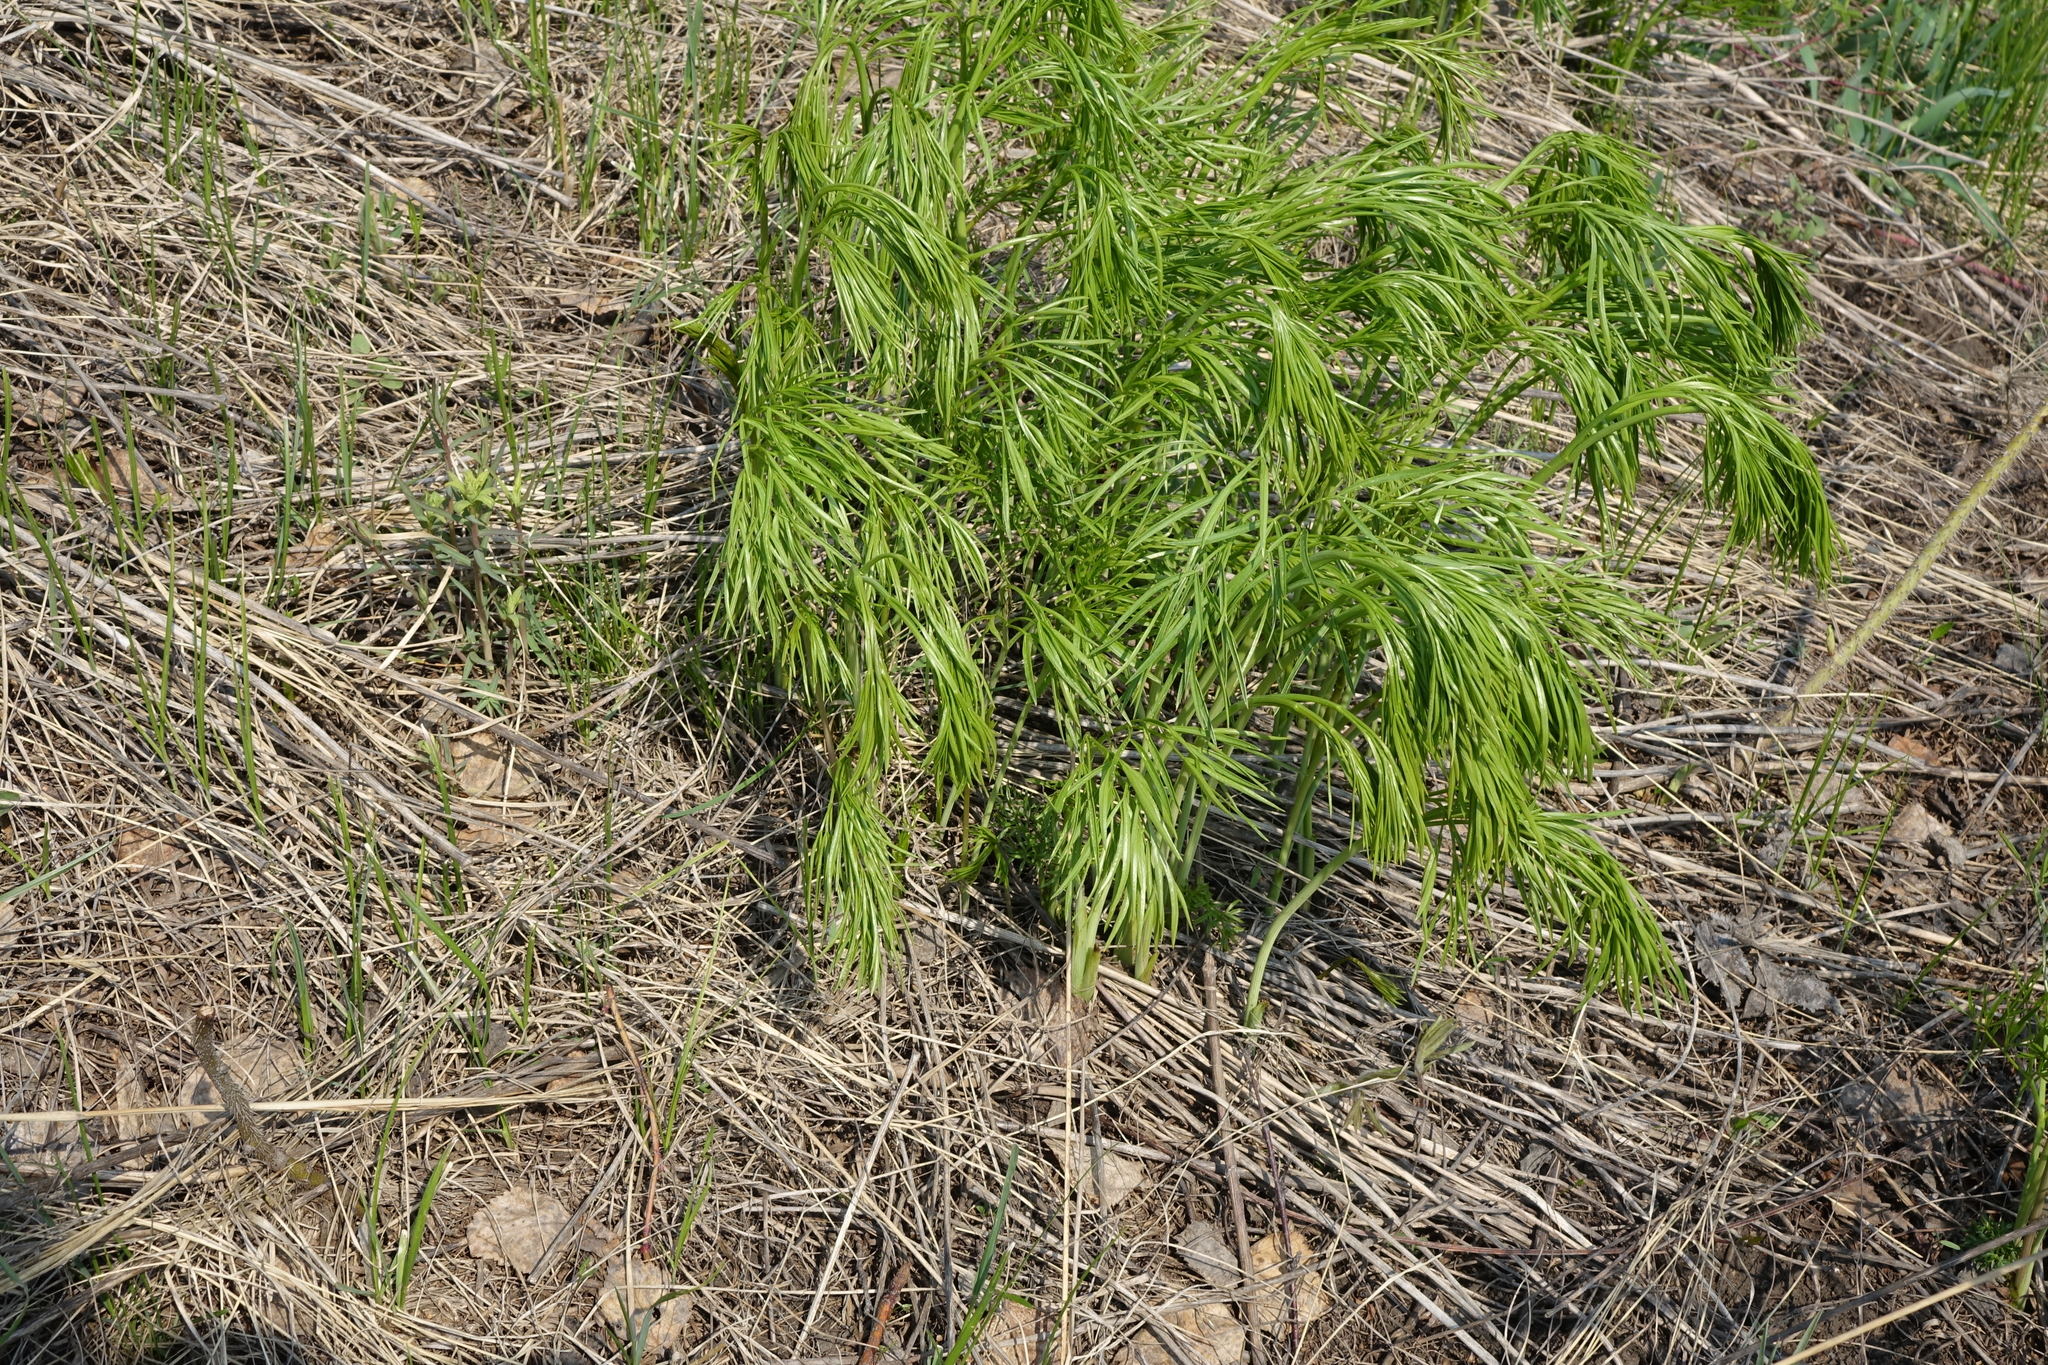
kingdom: Plantae
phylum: Tracheophyta
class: Magnoliopsida
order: Apiales
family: Apiaceae
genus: Peucedanum
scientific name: Peucedanum morisonii
